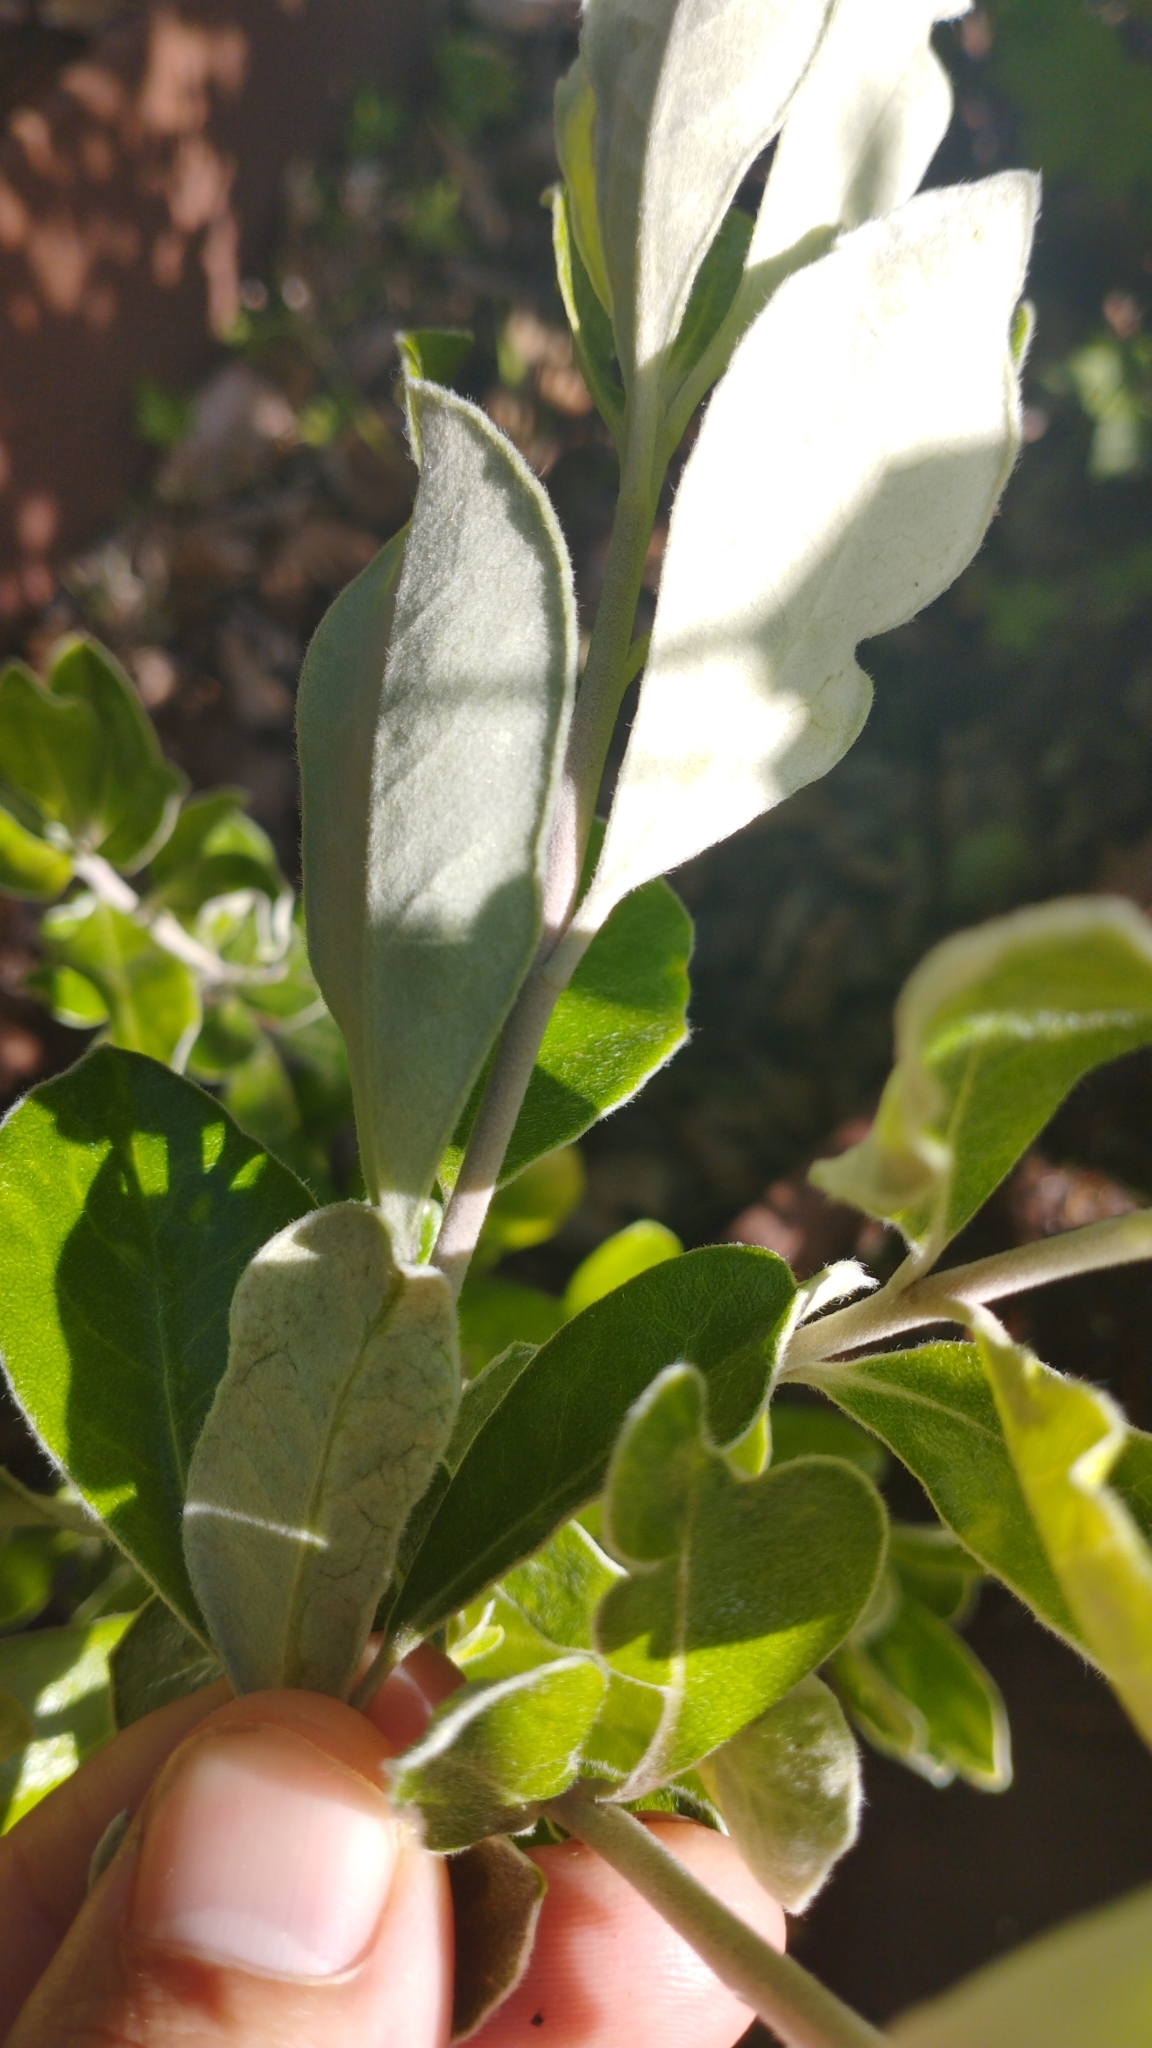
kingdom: Plantae
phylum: Tracheophyta
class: Magnoliopsida
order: Apiales
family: Pittosporaceae
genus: Pittosporum
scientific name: Pittosporum crassifolium
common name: Karo
